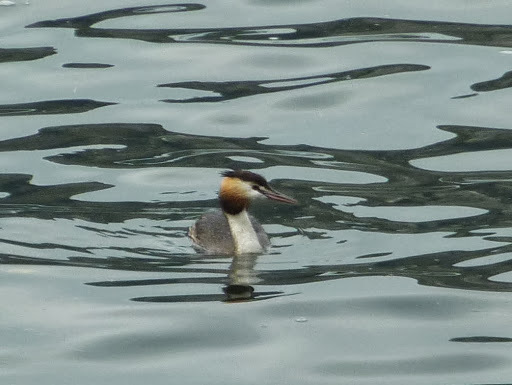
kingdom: Animalia
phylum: Chordata
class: Aves
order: Podicipediformes
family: Podicipedidae
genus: Podiceps
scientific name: Podiceps cristatus
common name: Great crested grebe
